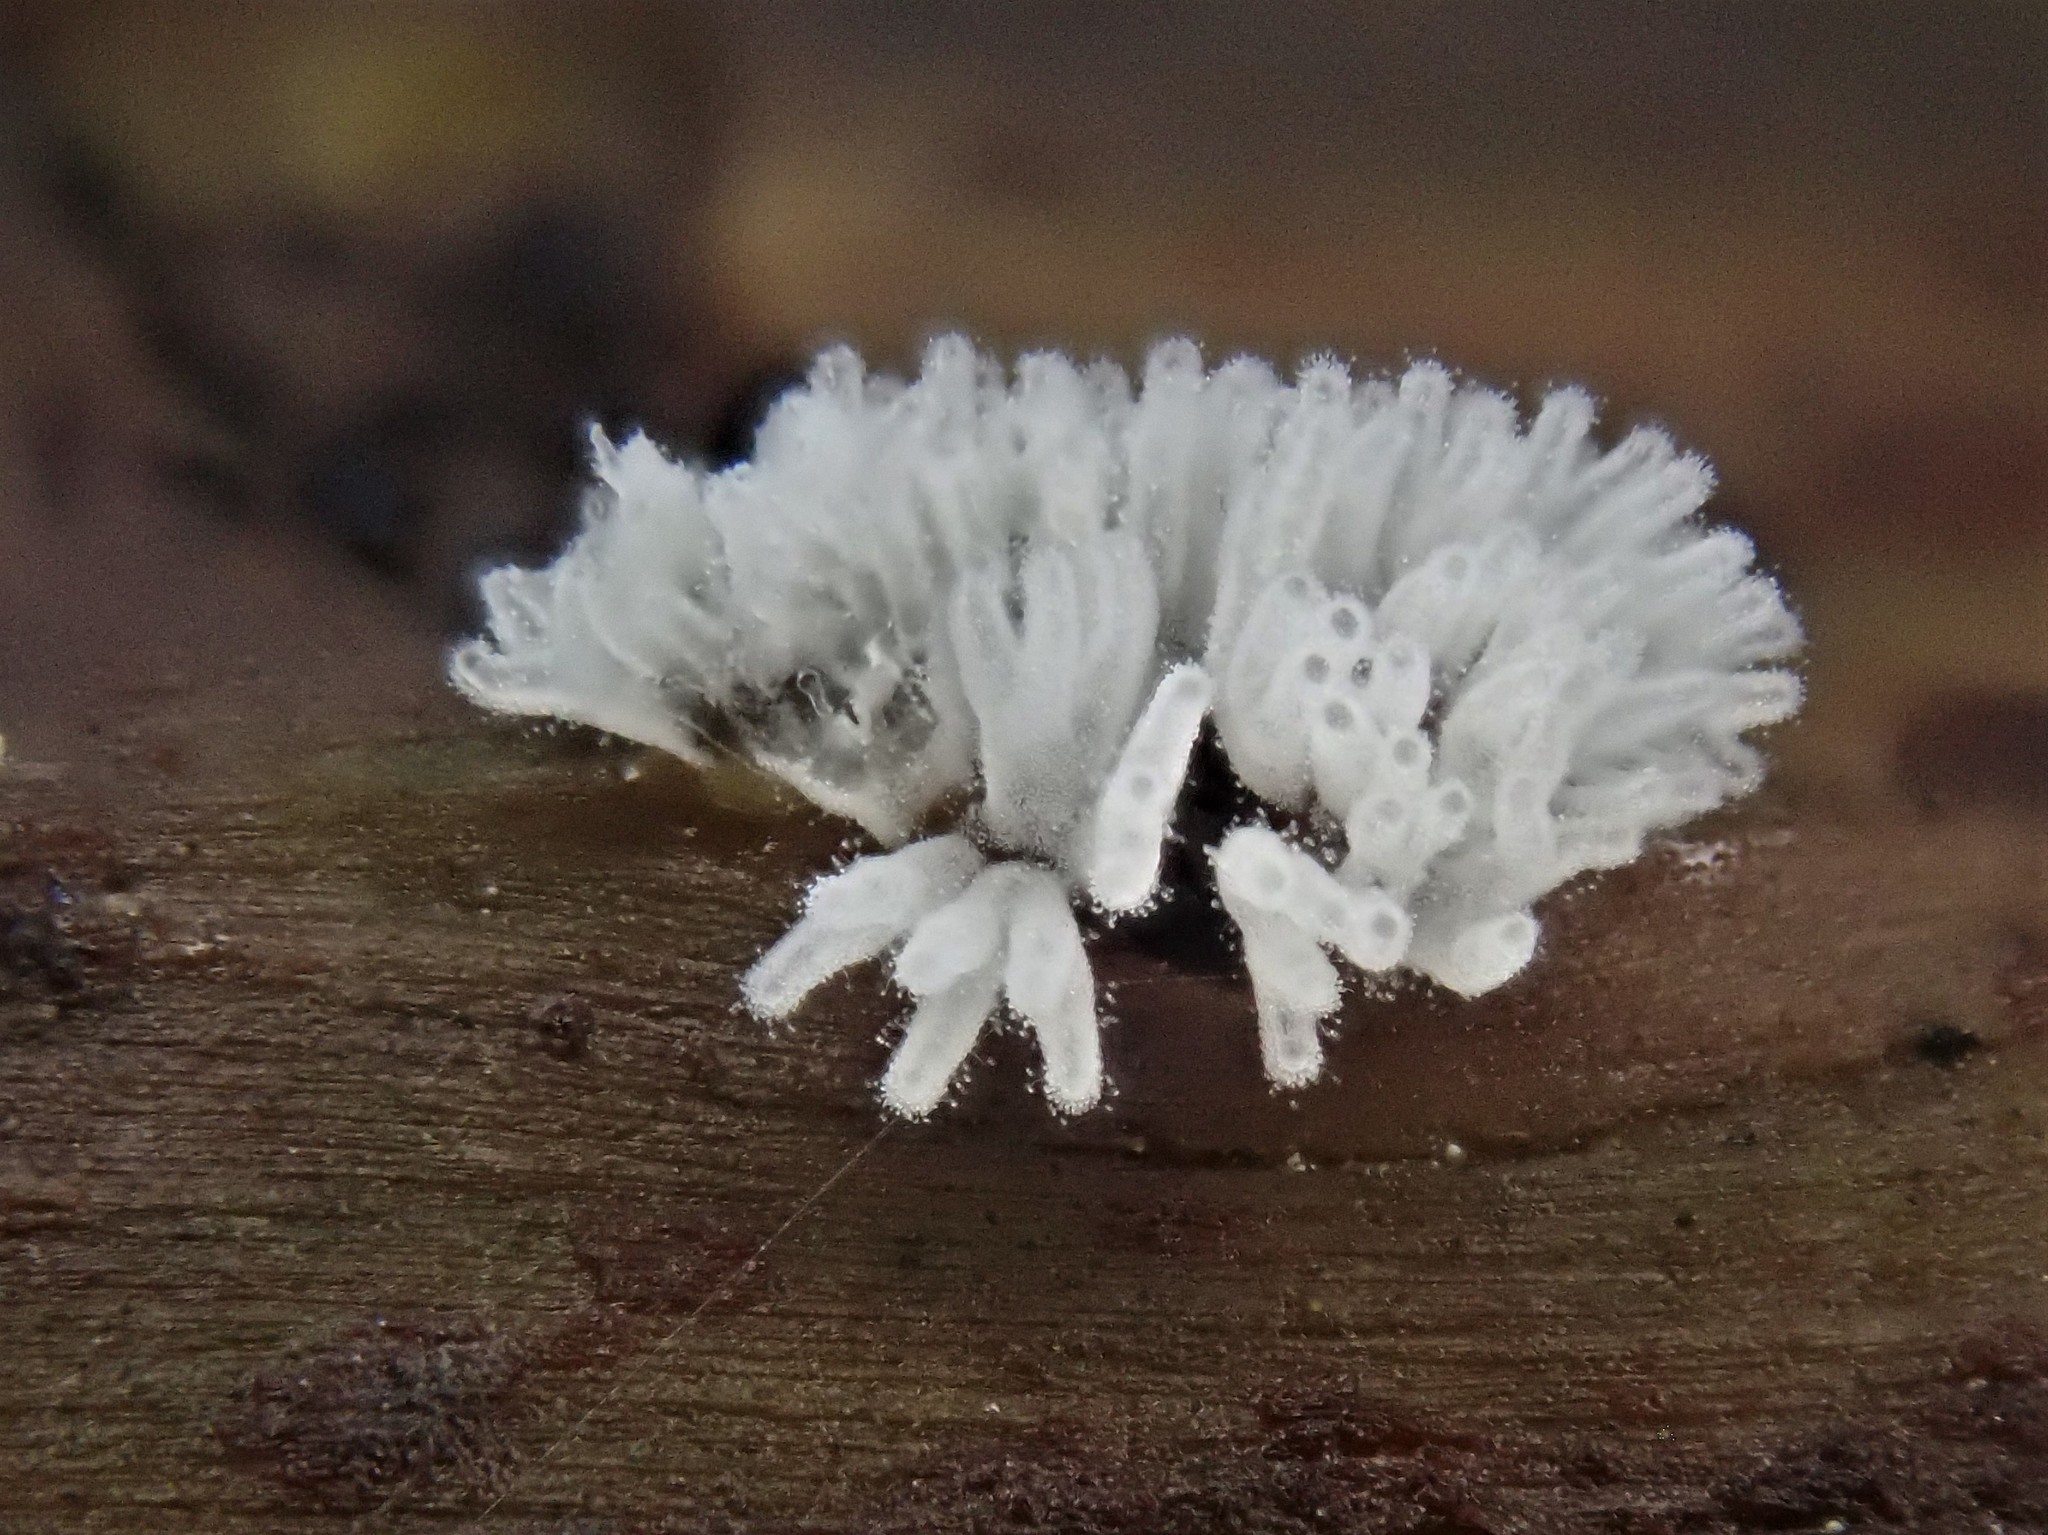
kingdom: Protozoa
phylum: Mycetozoa
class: Protosteliomycetes
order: Ceratiomyxales
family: Ceratiomyxaceae
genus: Ceratiomyxa
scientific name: Ceratiomyxa fruticulosa
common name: Honeycomb coral slime mold
